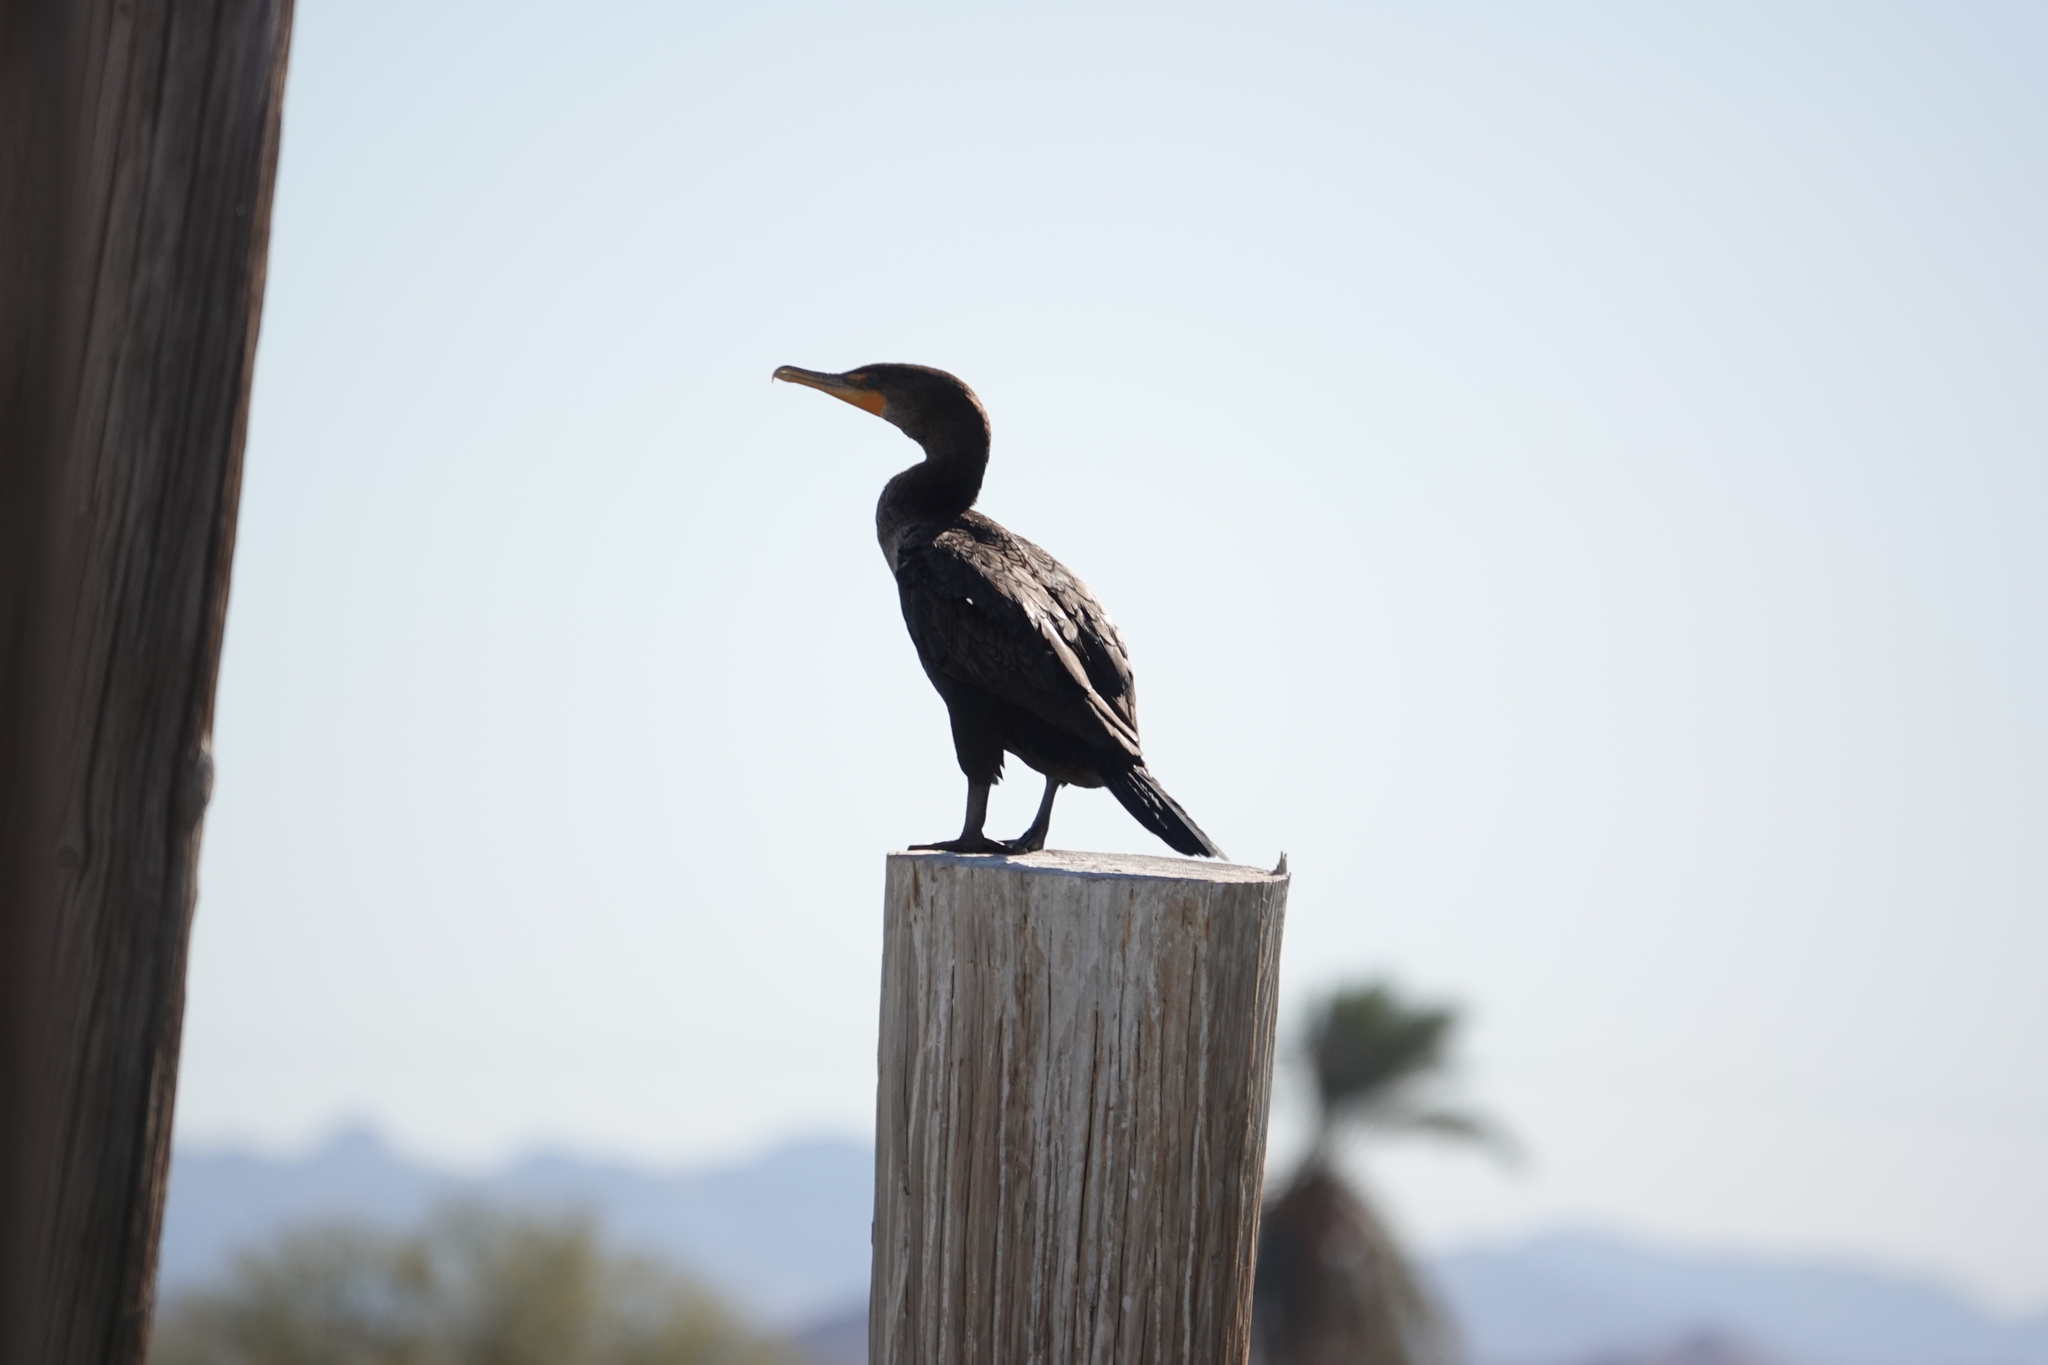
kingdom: Animalia
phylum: Chordata
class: Aves
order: Suliformes
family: Phalacrocoracidae
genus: Phalacrocorax
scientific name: Phalacrocorax auritus
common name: Double-crested cormorant
